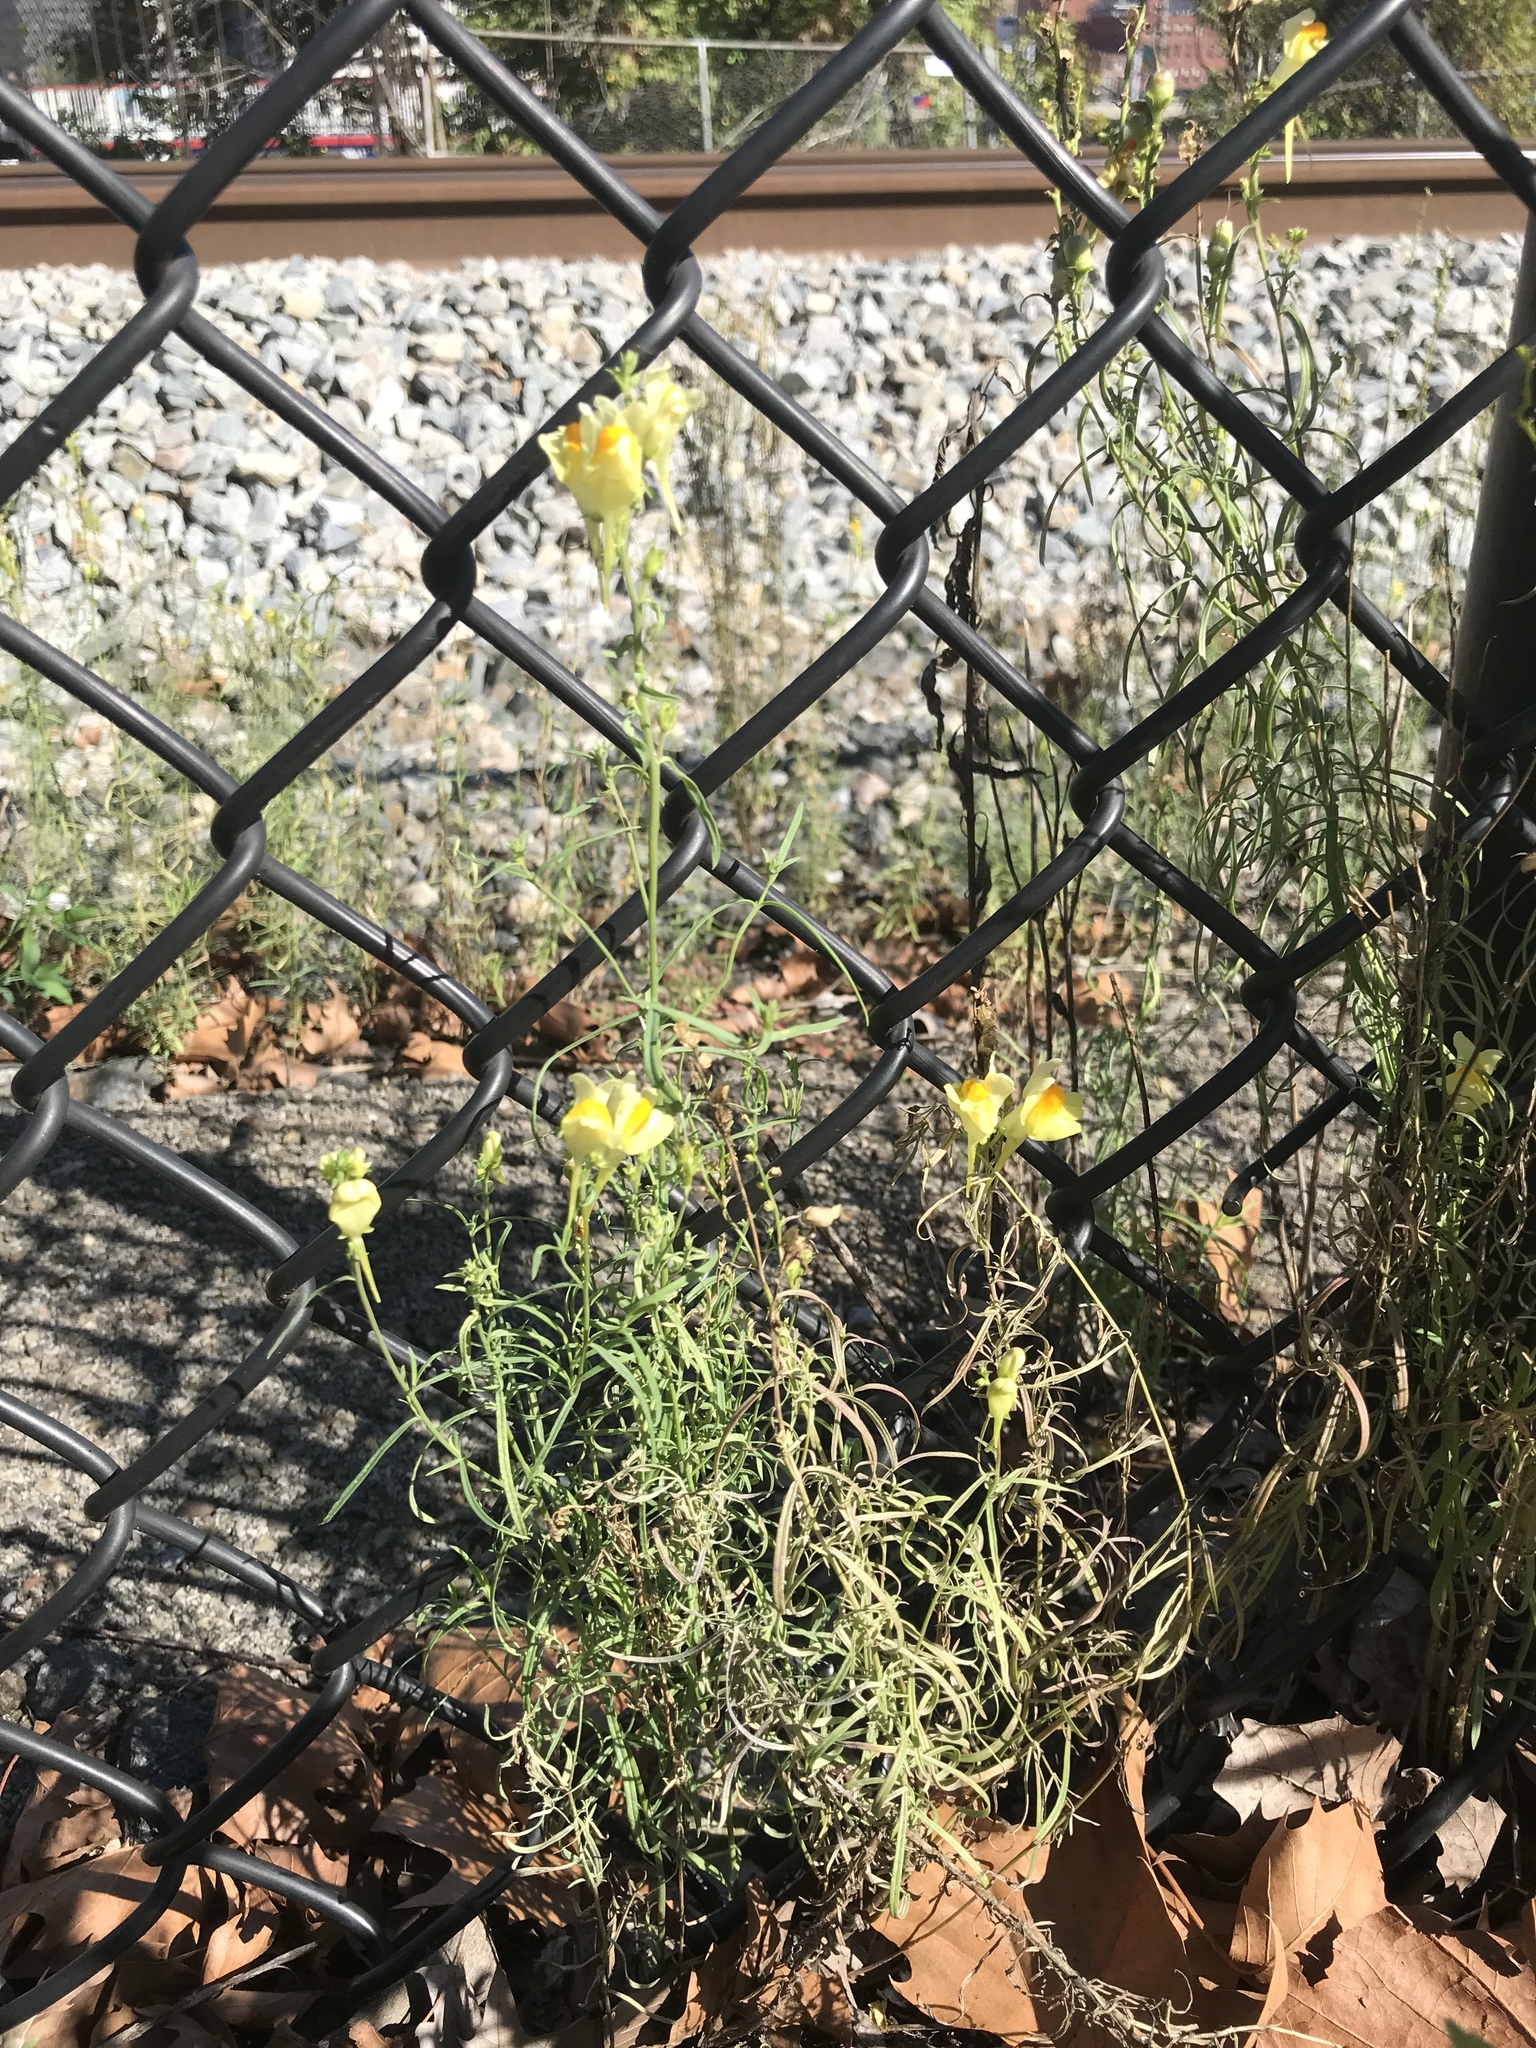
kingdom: Plantae
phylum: Tracheophyta
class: Magnoliopsida
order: Lamiales
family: Plantaginaceae
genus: Linaria
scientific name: Linaria vulgaris
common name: Butter and eggs
